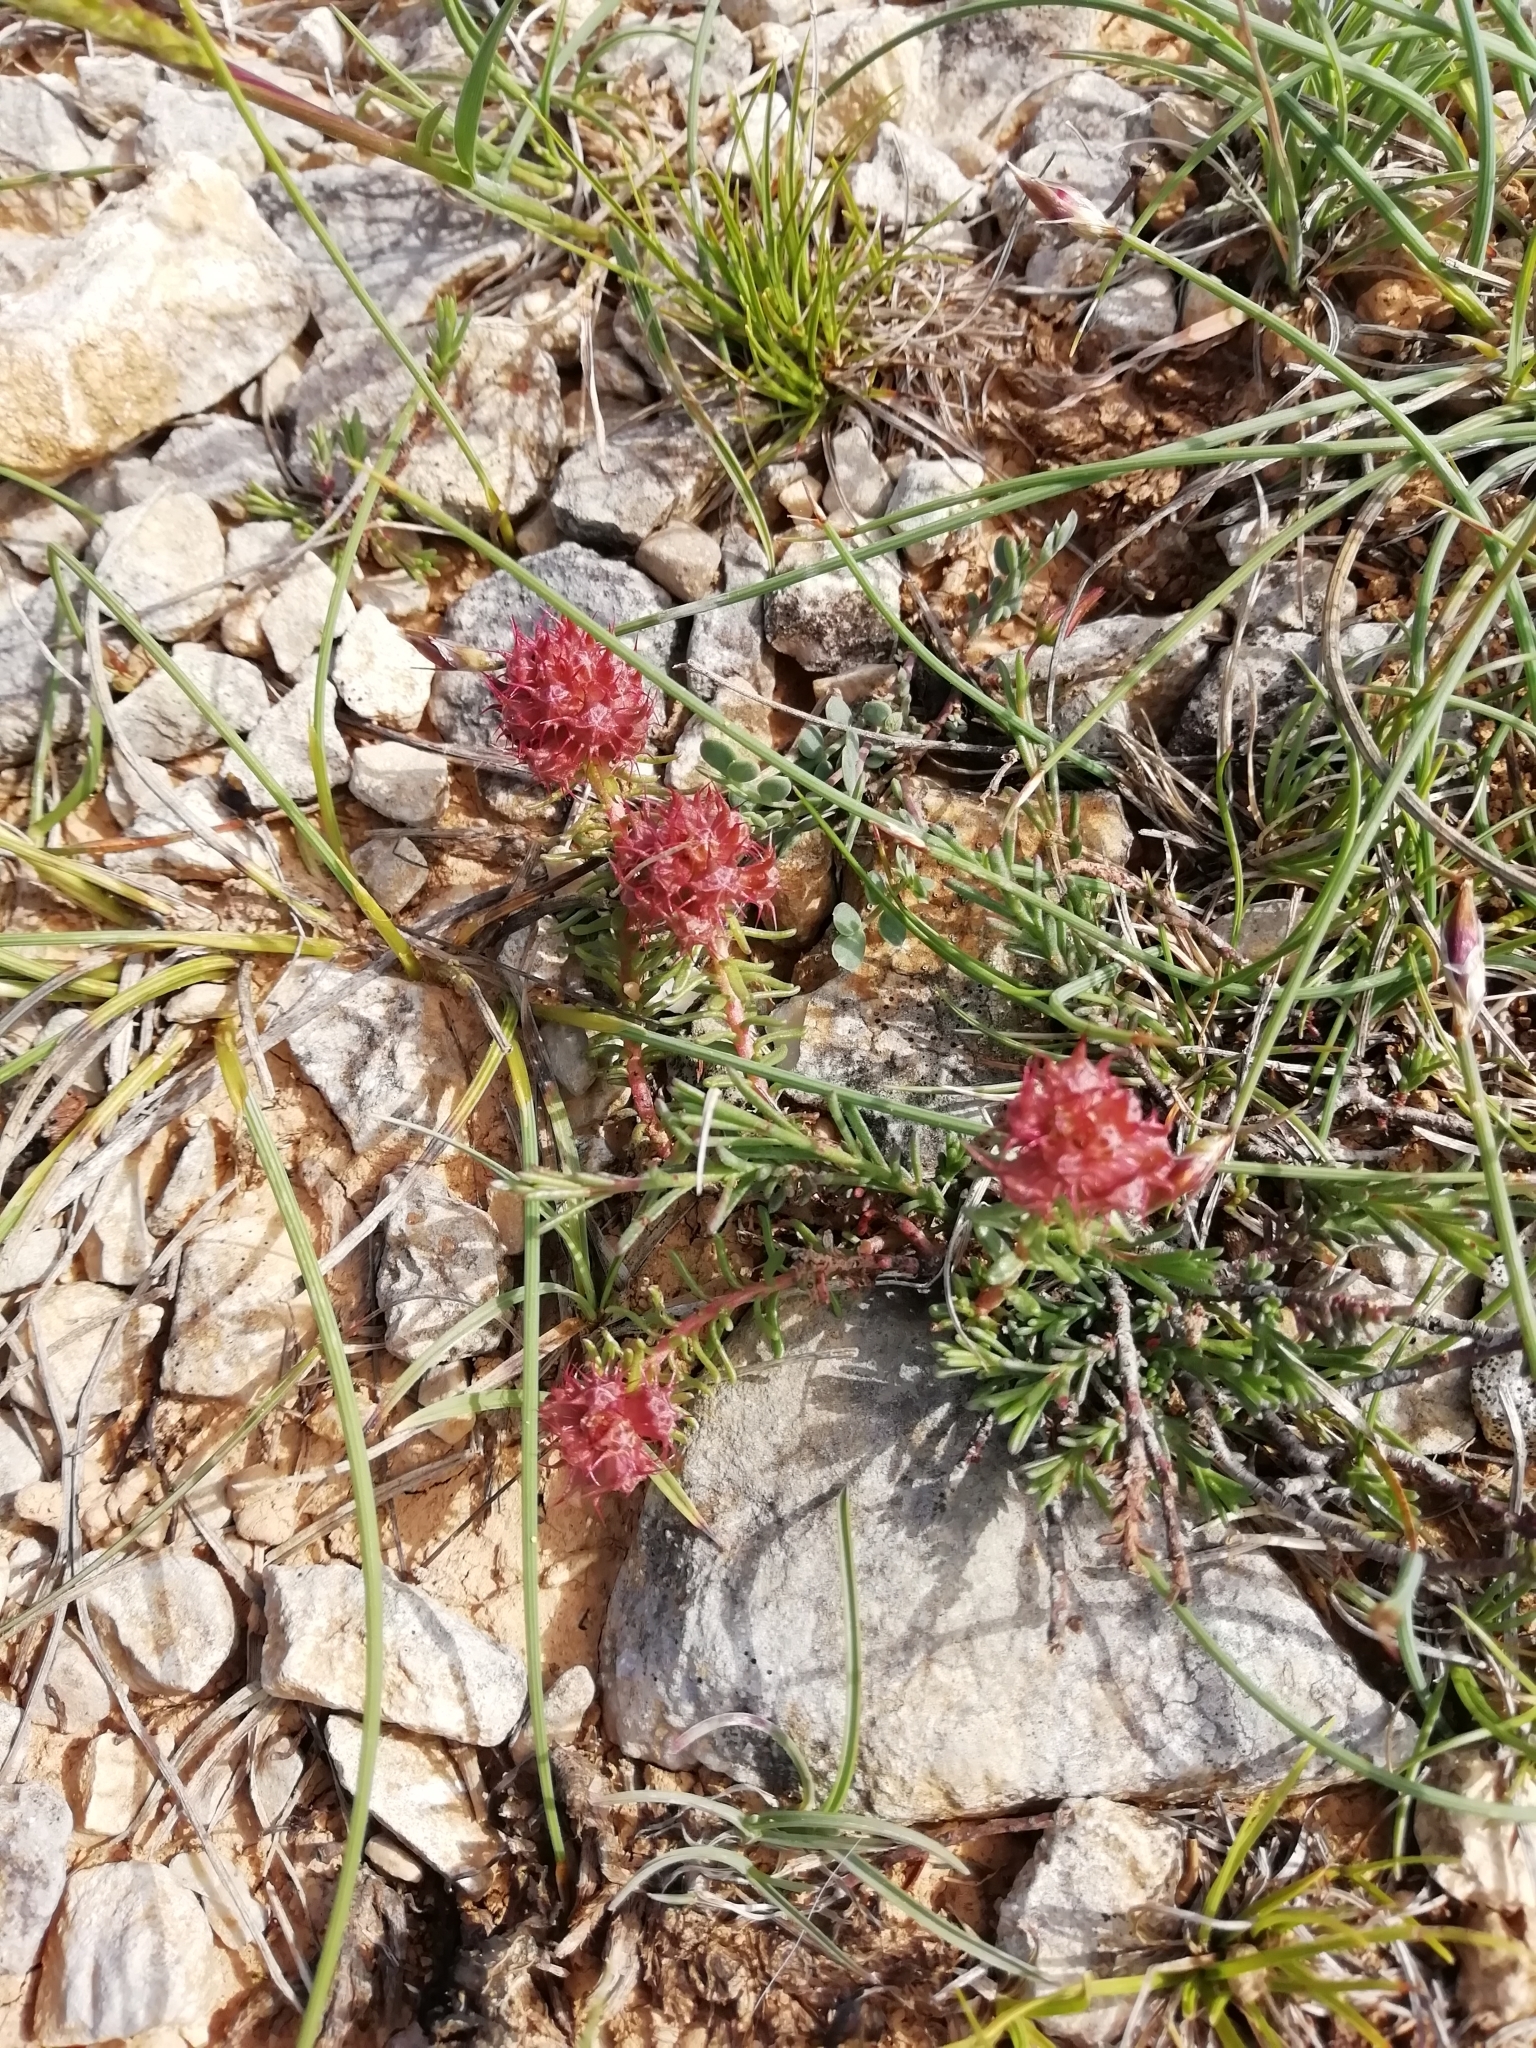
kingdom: Plantae
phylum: Tracheophyta
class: Magnoliopsida
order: Ericales
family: Primulaceae
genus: Coris
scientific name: Coris monspeliensis
